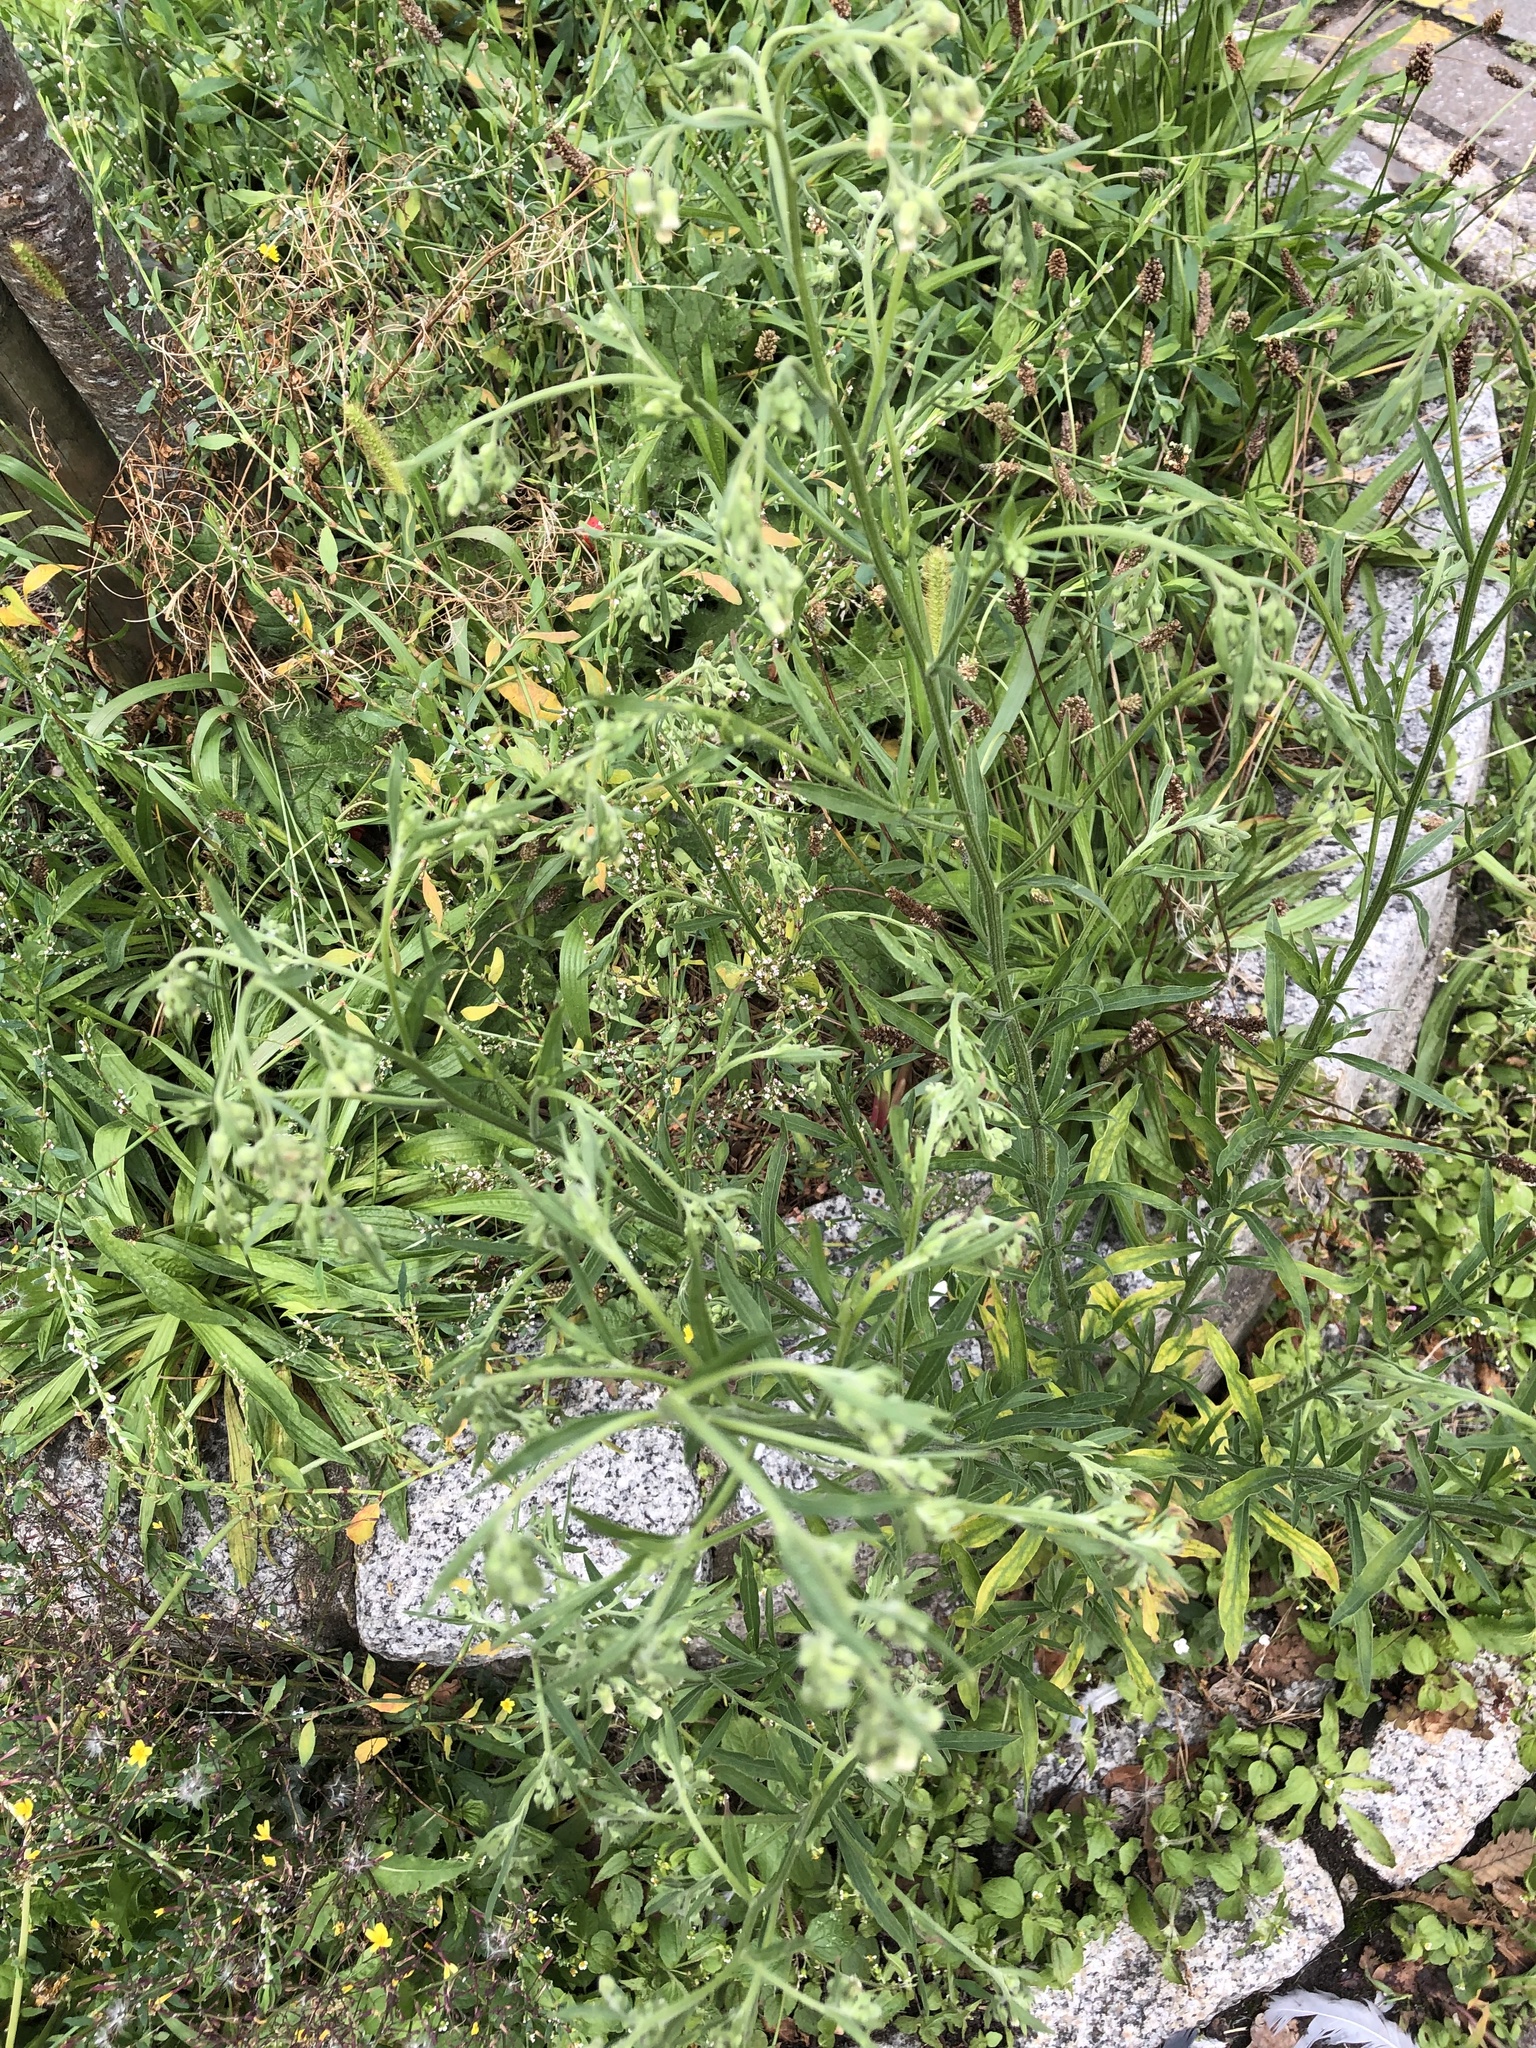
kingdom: Plantae
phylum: Tracheophyta
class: Magnoliopsida
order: Asterales
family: Asteraceae
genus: Erigeron
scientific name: Erigeron sumatrensis
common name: Daisy
